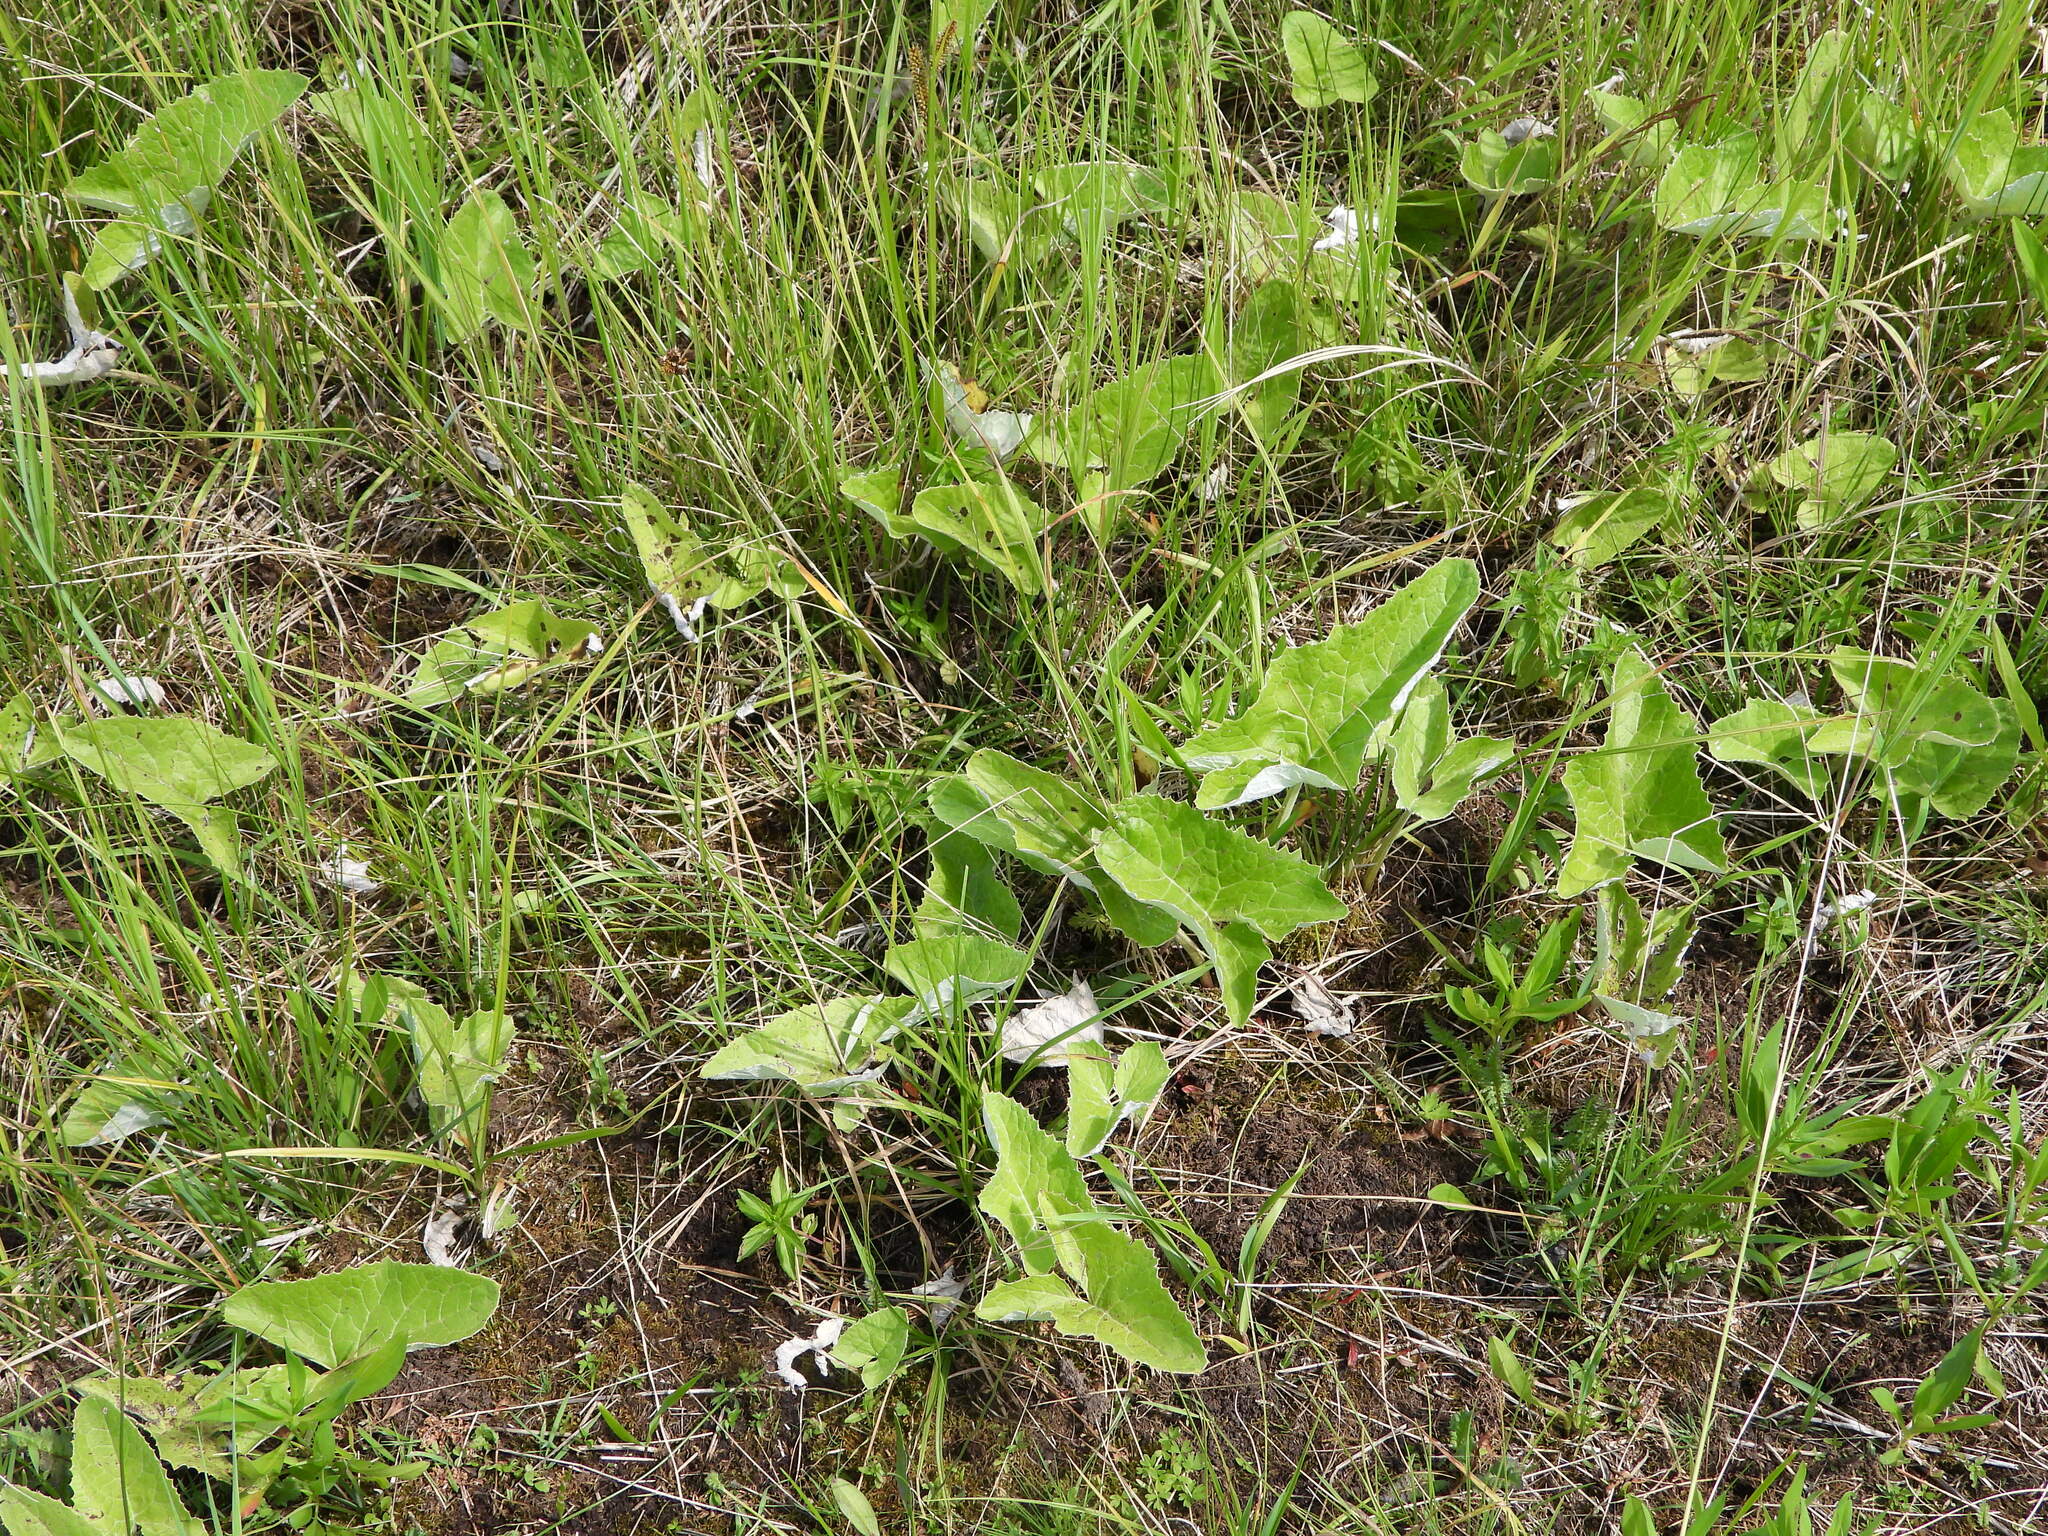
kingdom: Plantae
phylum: Tracheophyta
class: Magnoliopsida
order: Asterales
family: Asteraceae
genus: Petasites
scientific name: Petasites frigidus
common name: Arctic butterbur
